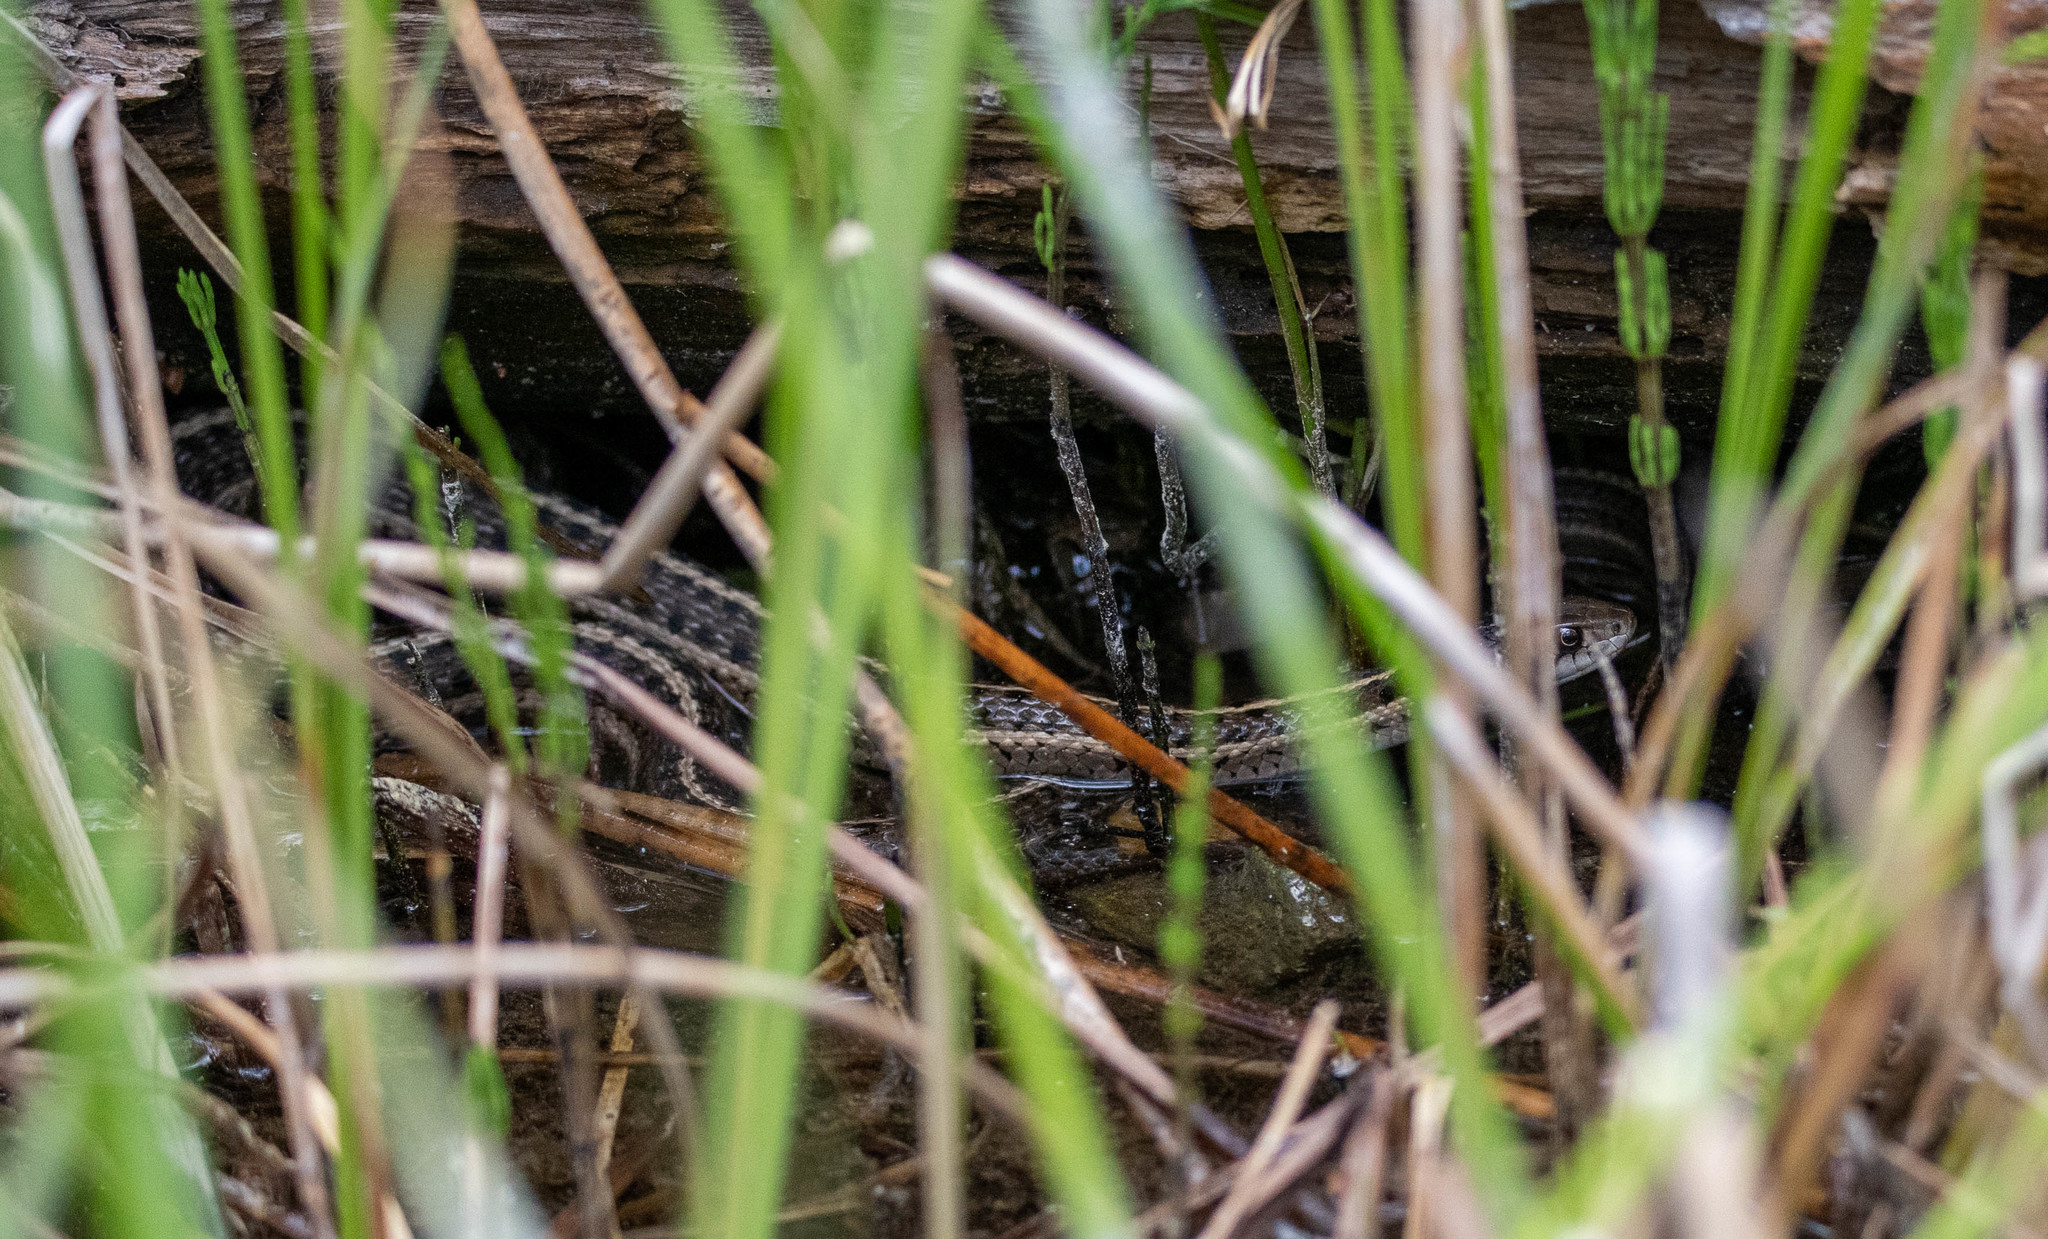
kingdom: Animalia
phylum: Chordata
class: Squamata
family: Colubridae
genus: Thamnophis
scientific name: Thamnophis elegans
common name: Western terrestrial garter snake
